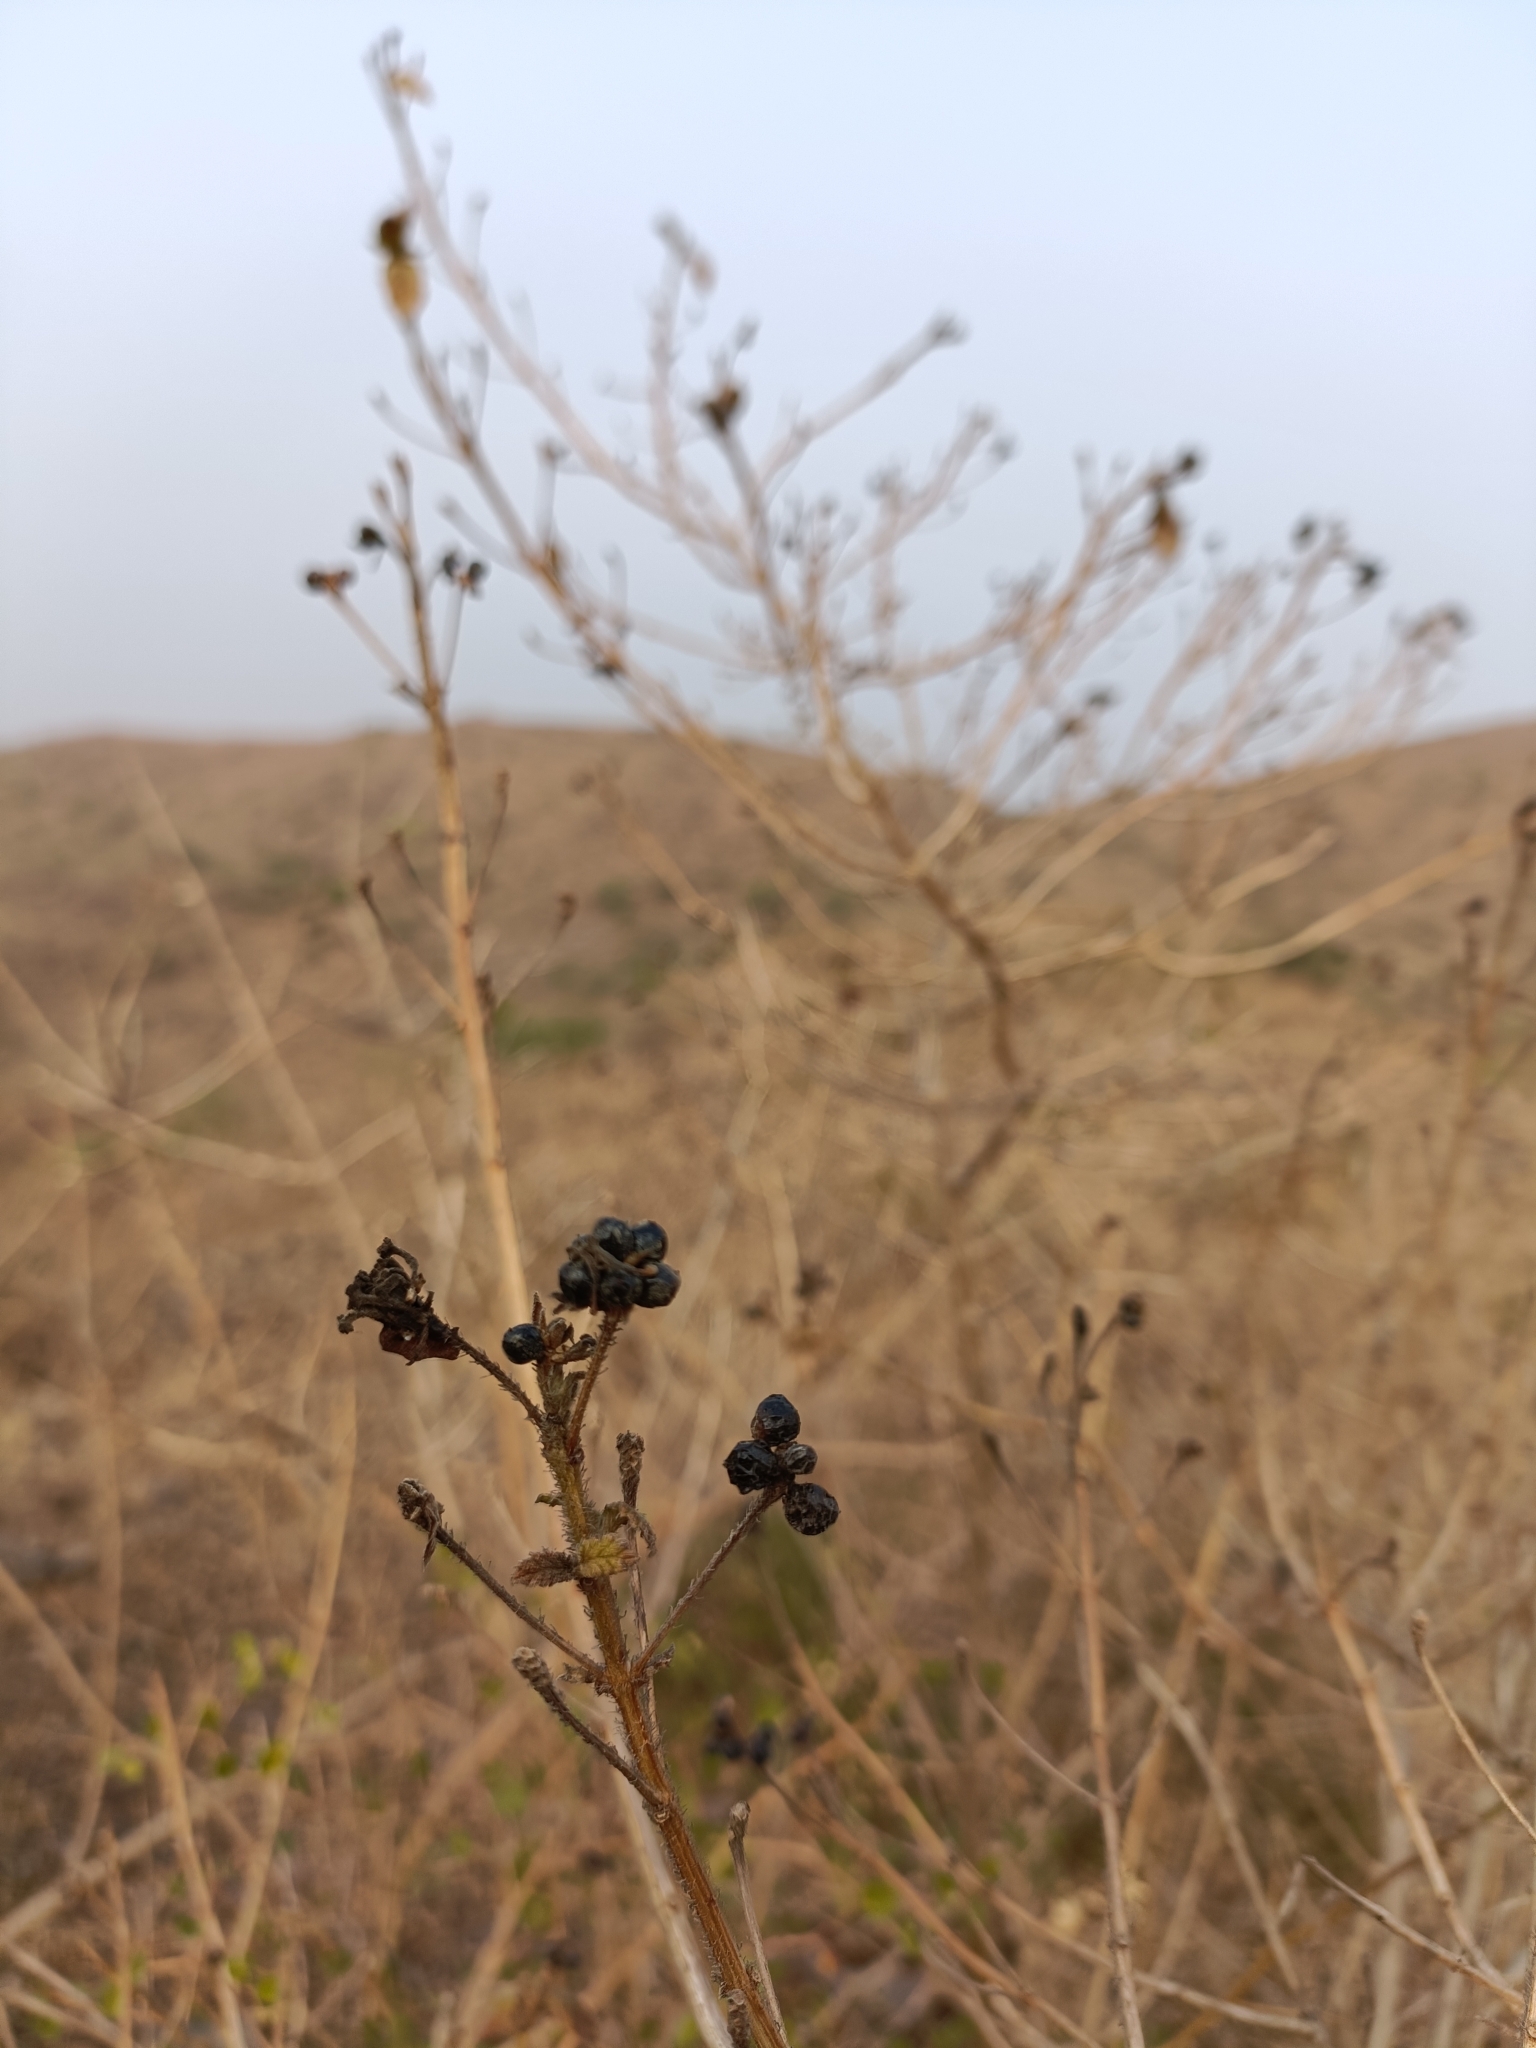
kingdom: Plantae
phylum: Tracheophyta
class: Magnoliopsida
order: Lamiales
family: Verbenaceae
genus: Lantana
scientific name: Lantana camara
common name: Lantana
